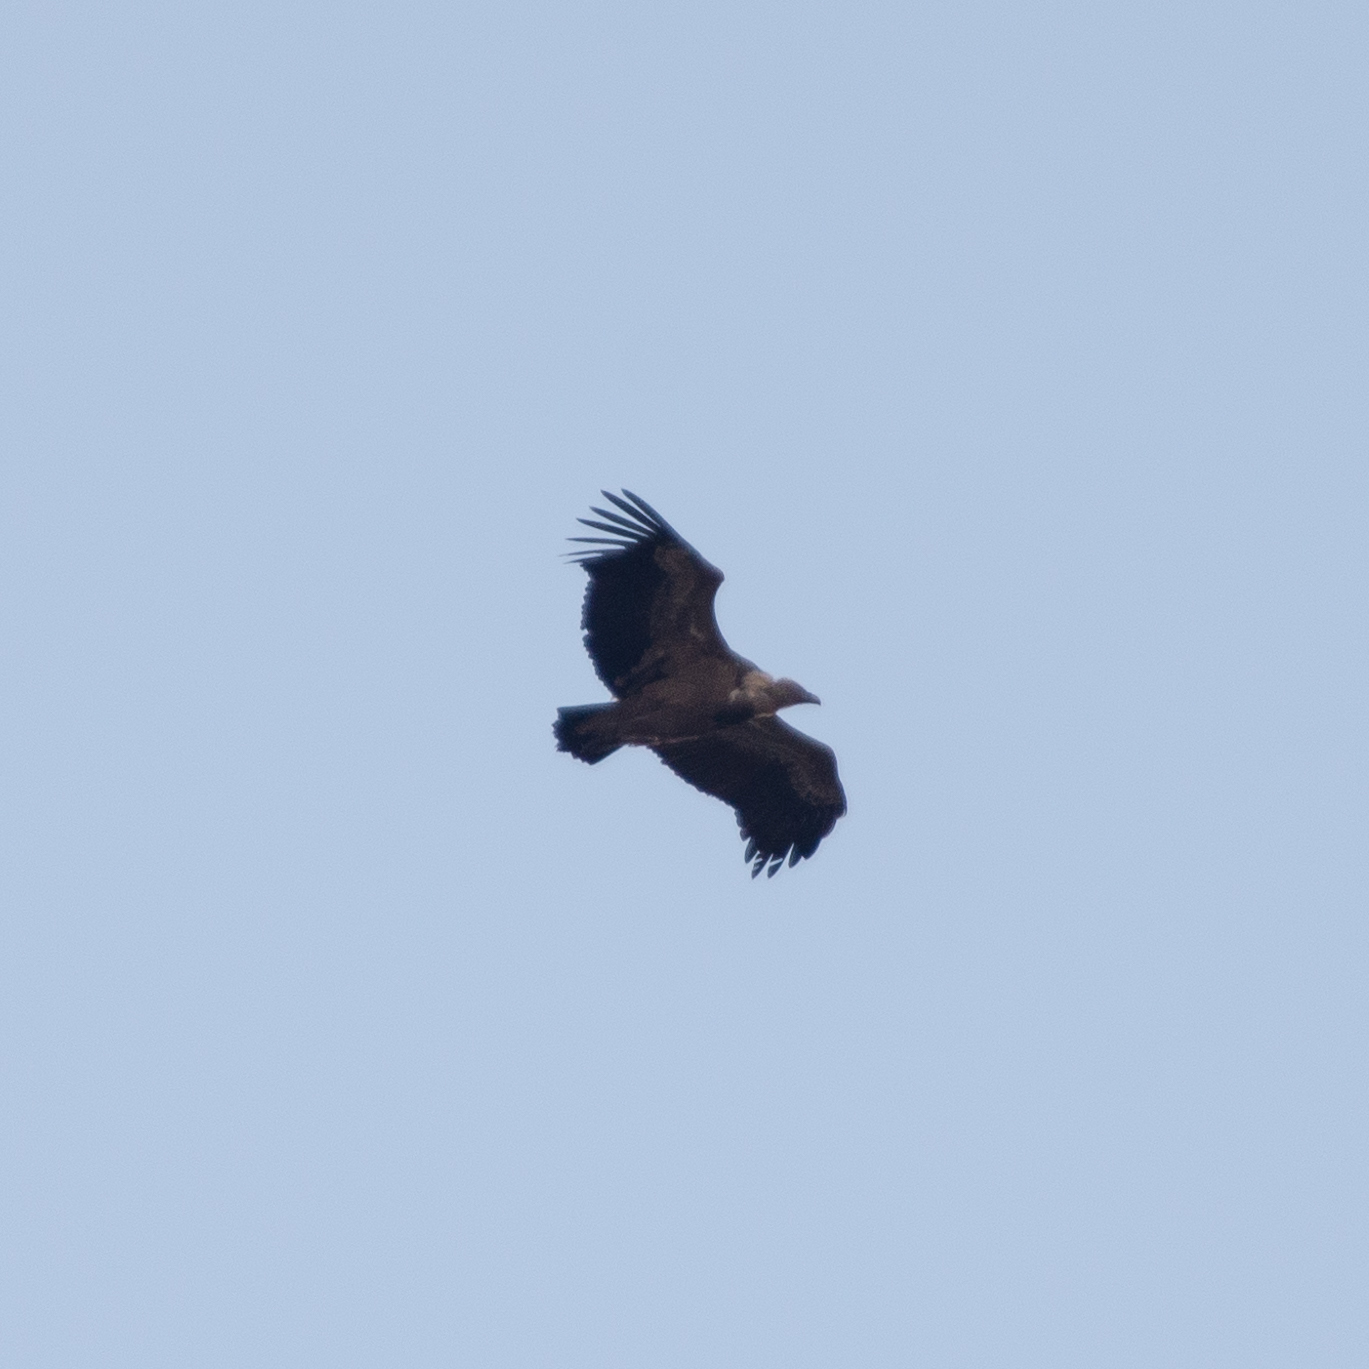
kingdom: Animalia
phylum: Chordata
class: Aves
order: Accipitriformes
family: Accipitridae
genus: Gyps
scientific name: Gyps fulvus
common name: Griffon vulture
